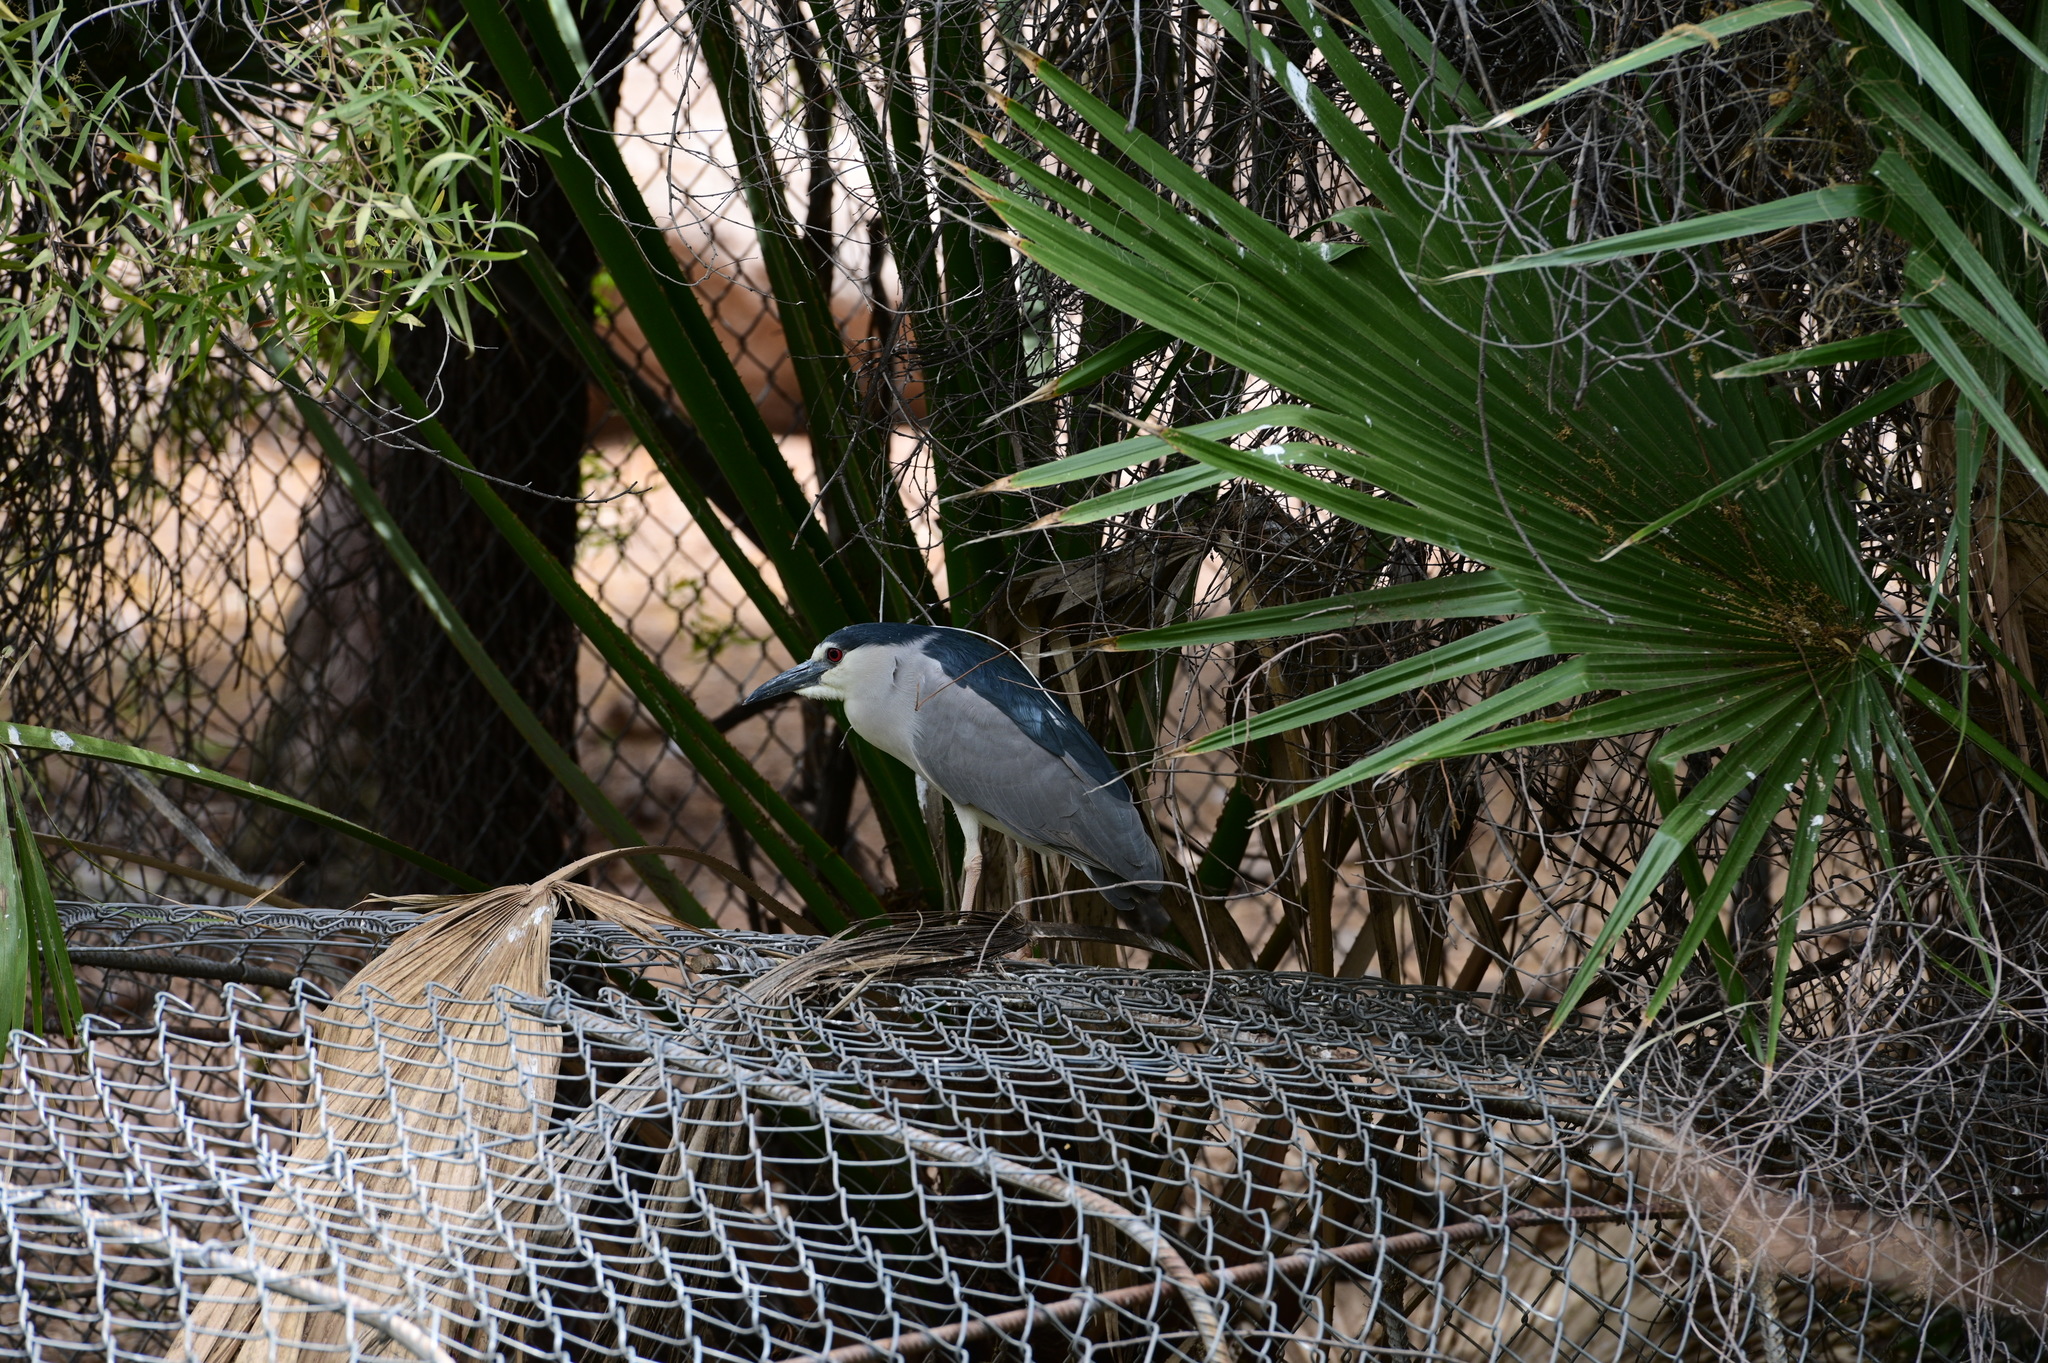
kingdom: Animalia
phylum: Chordata
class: Aves
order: Pelecaniformes
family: Ardeidae
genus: Nycticorax
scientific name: Nycticorax nycticorax
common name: Black-crowned night heron
